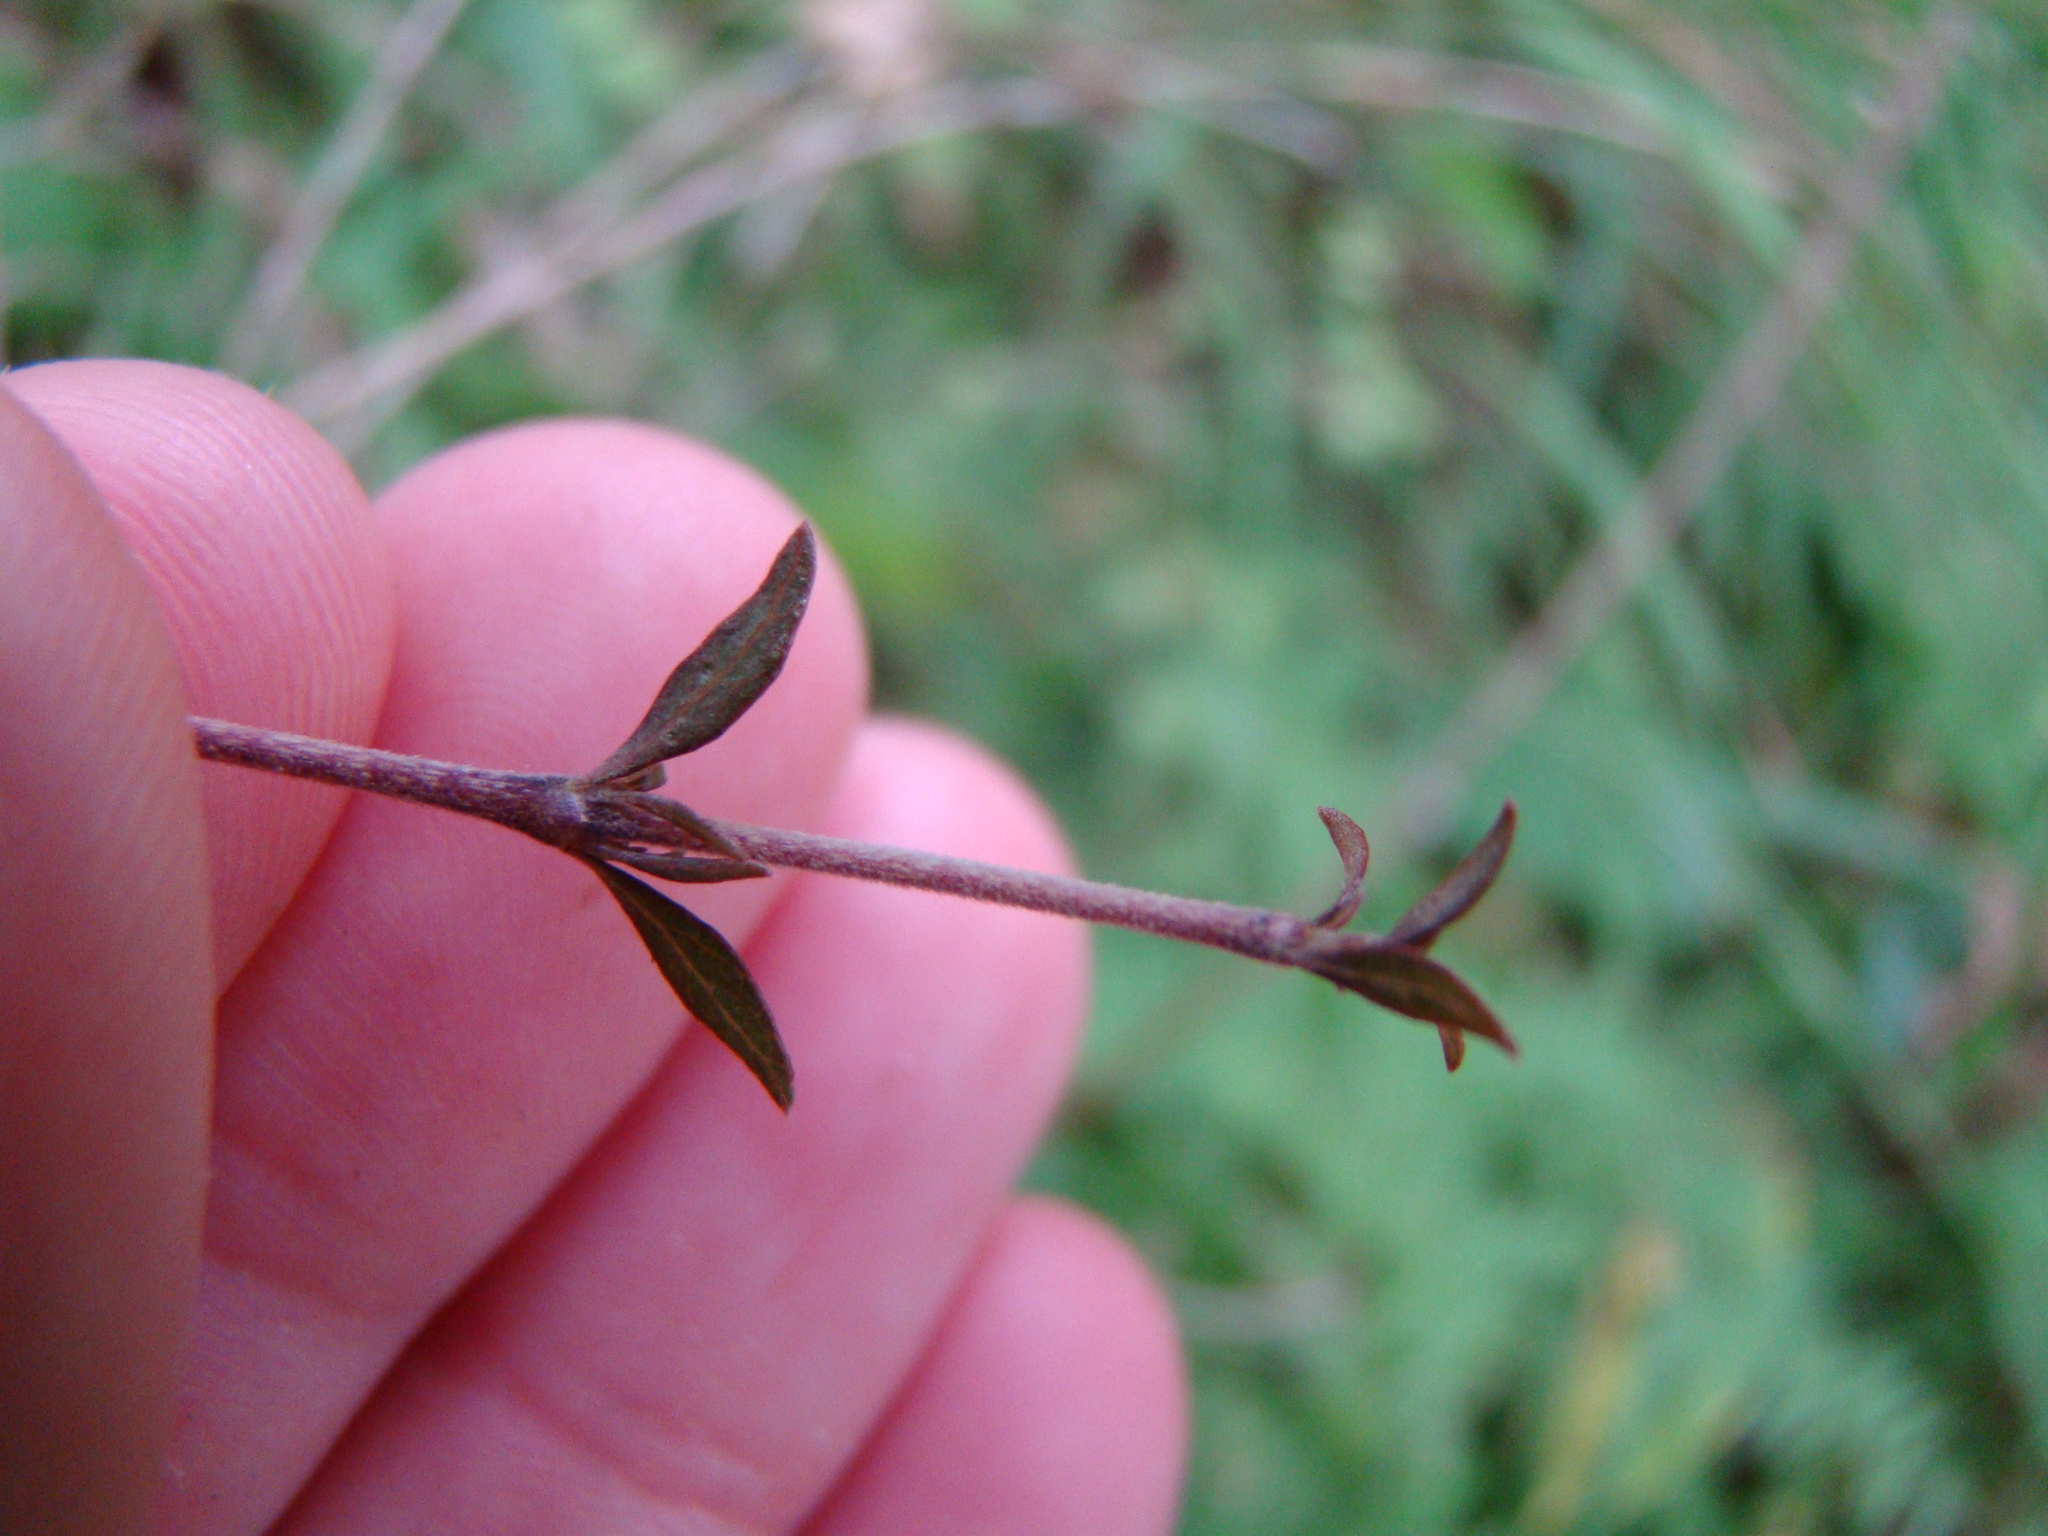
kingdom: Plantae
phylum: Tracheophyta
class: Magnoliopsida
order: Gentianales
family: Rubiaceae
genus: Coprosma
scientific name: Coprosma microcarpa
